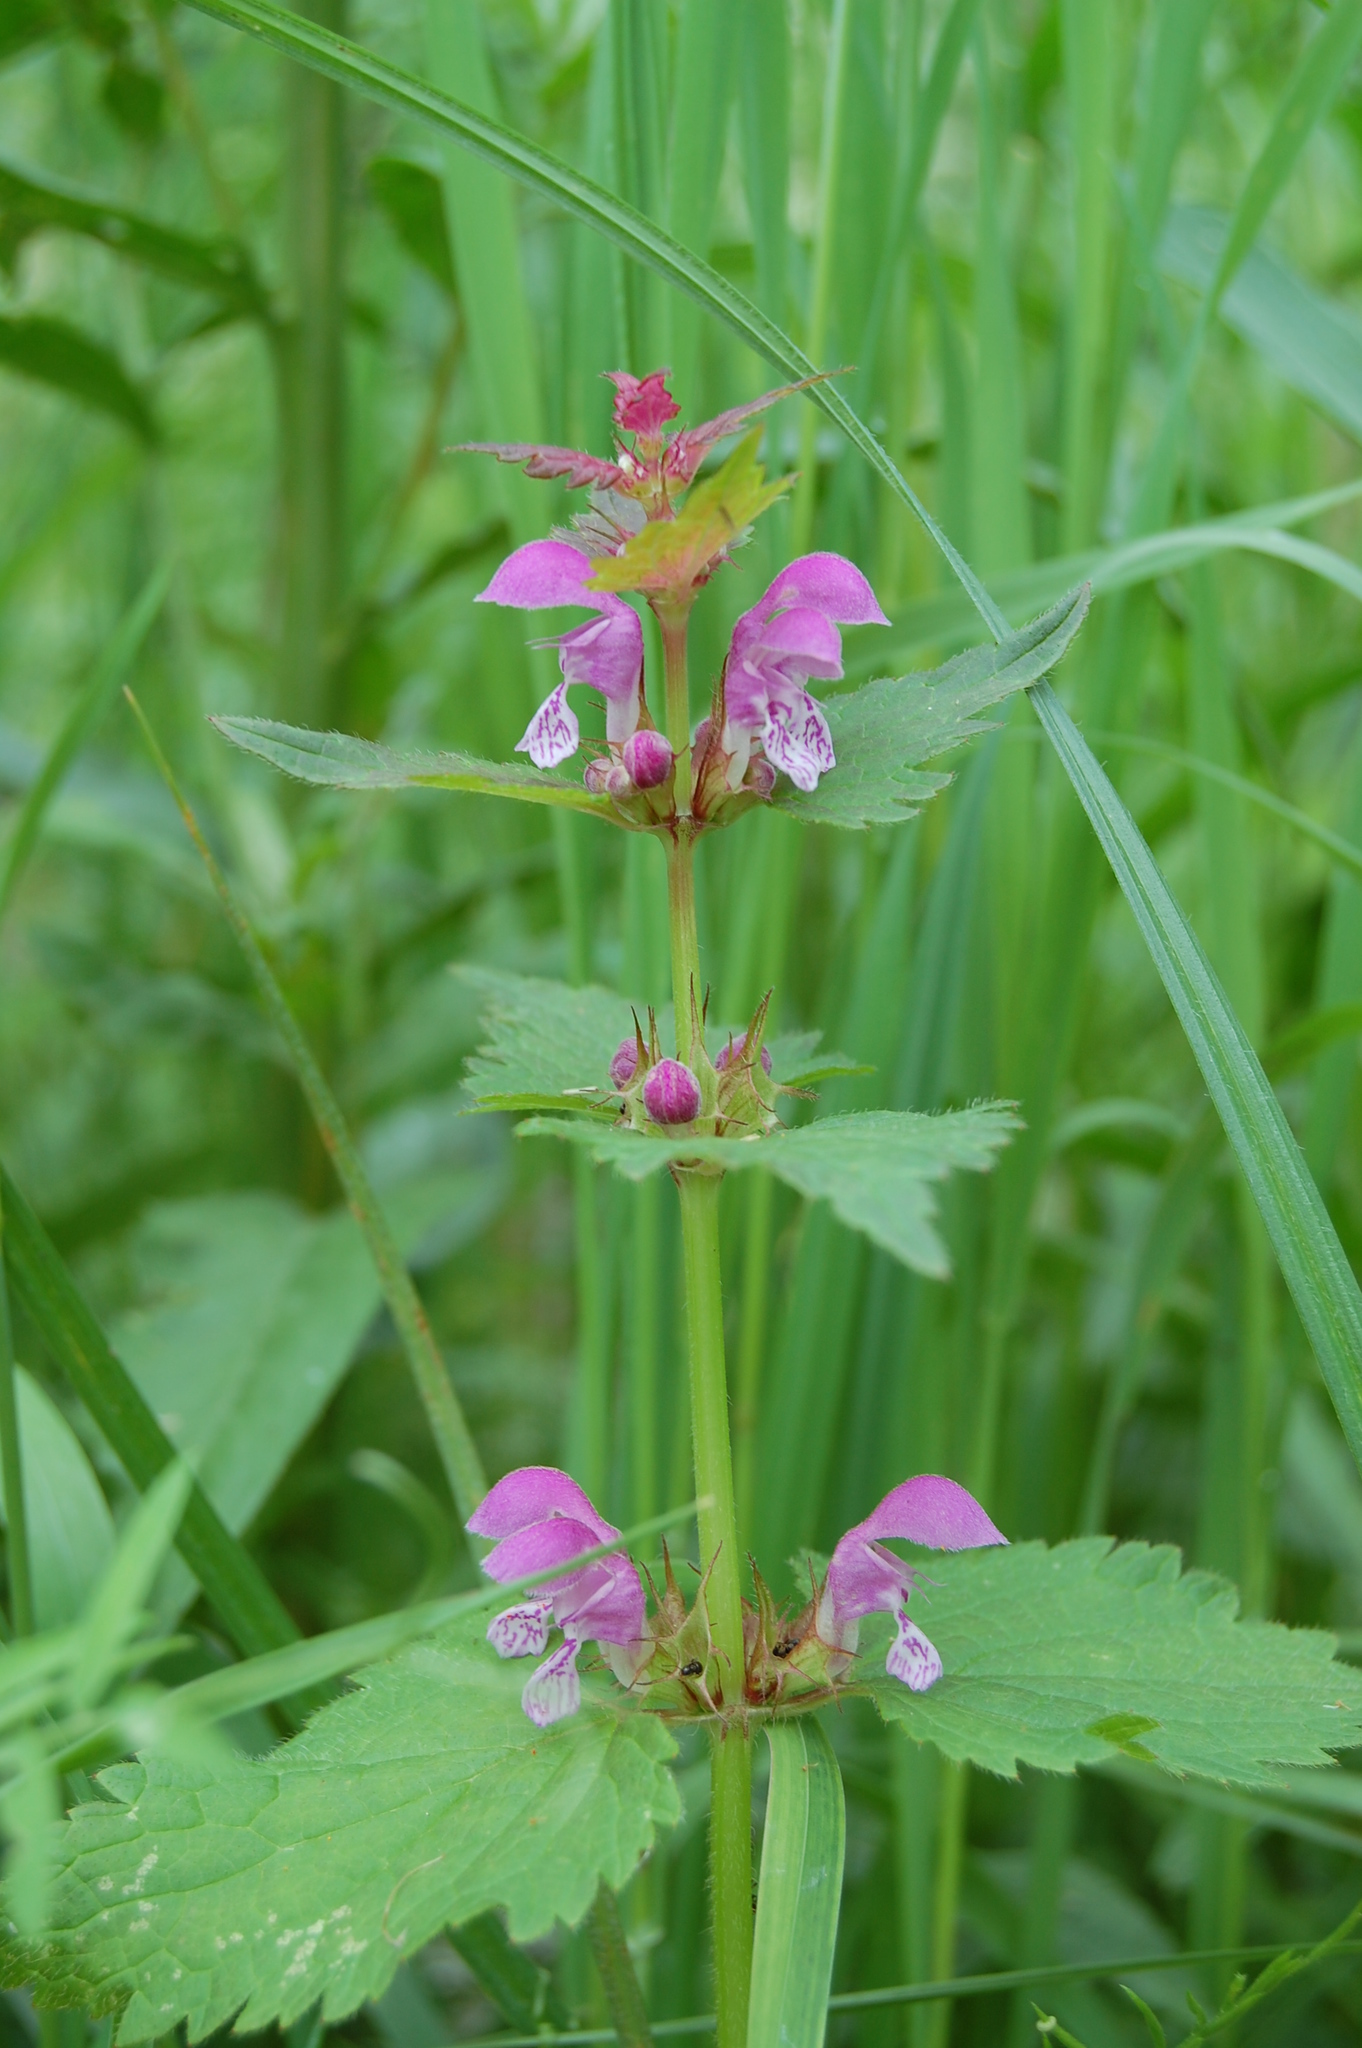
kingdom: Plantae
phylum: Tracheophyta
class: Magnoliopsida
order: Lamiales
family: Lamiaceae
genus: Lamium
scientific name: Lamium maculatum
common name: Spotted dead-nettle
